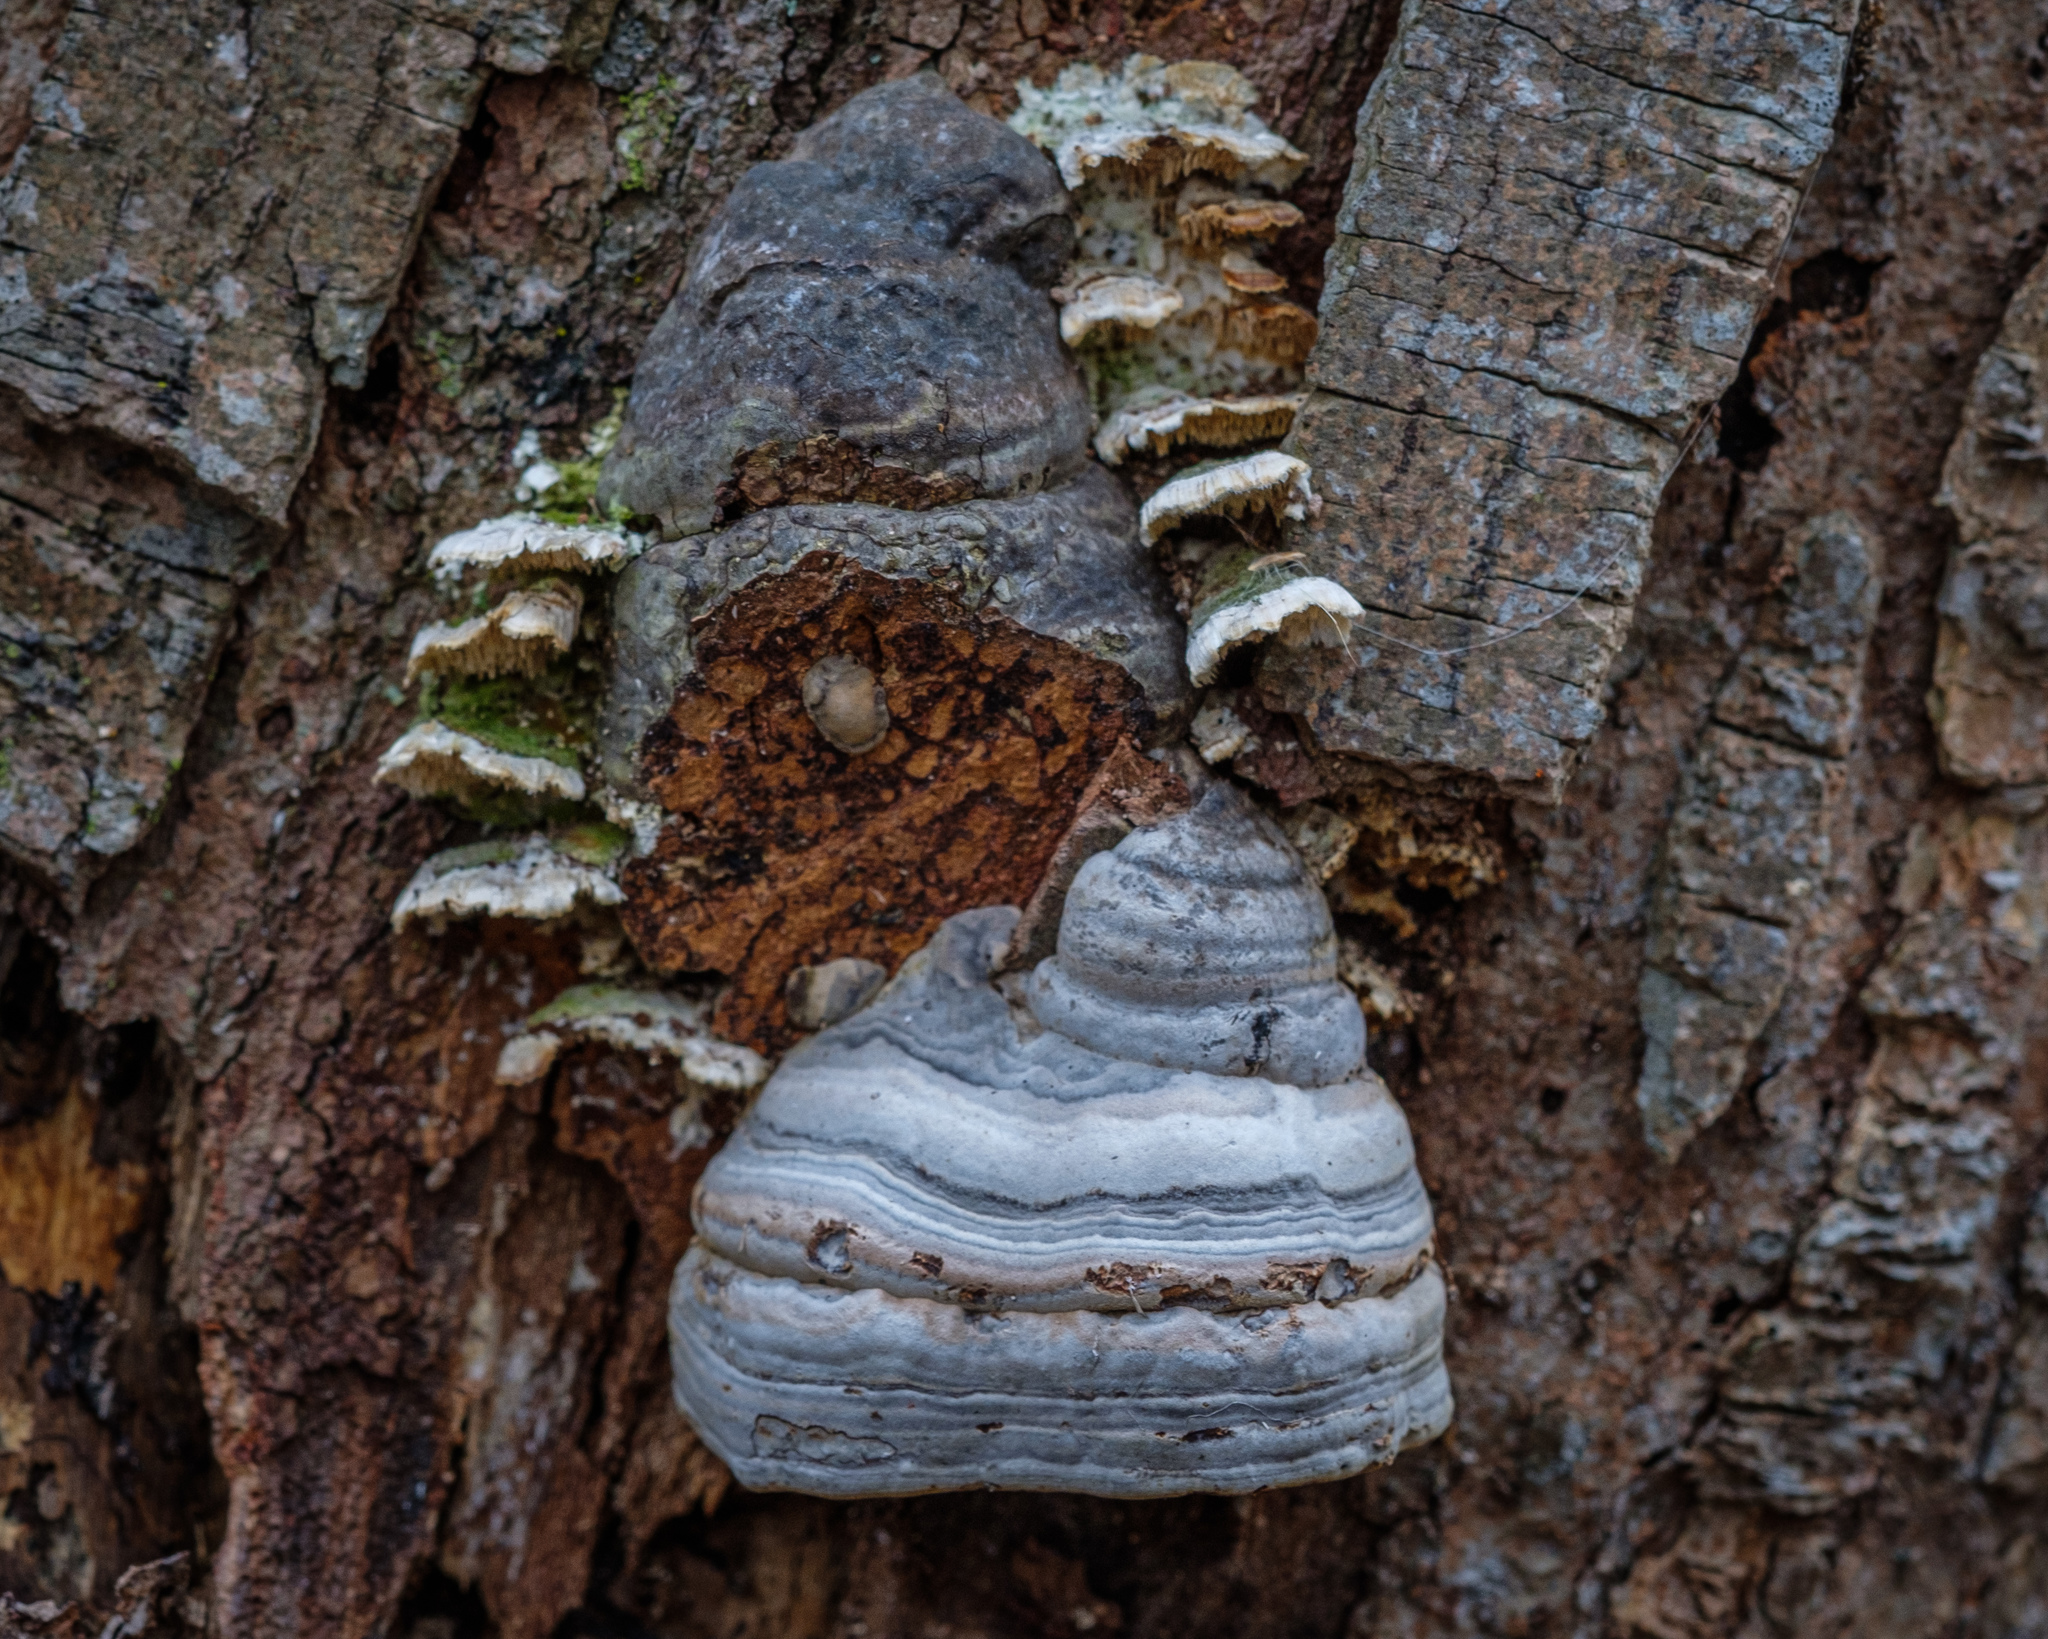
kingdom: Fungi
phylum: Basidiomycota
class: Agaricomycetes
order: Polyporales
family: Polyporaceae
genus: Fomes
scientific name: Fomes fomentarius
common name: Hoof fungus
